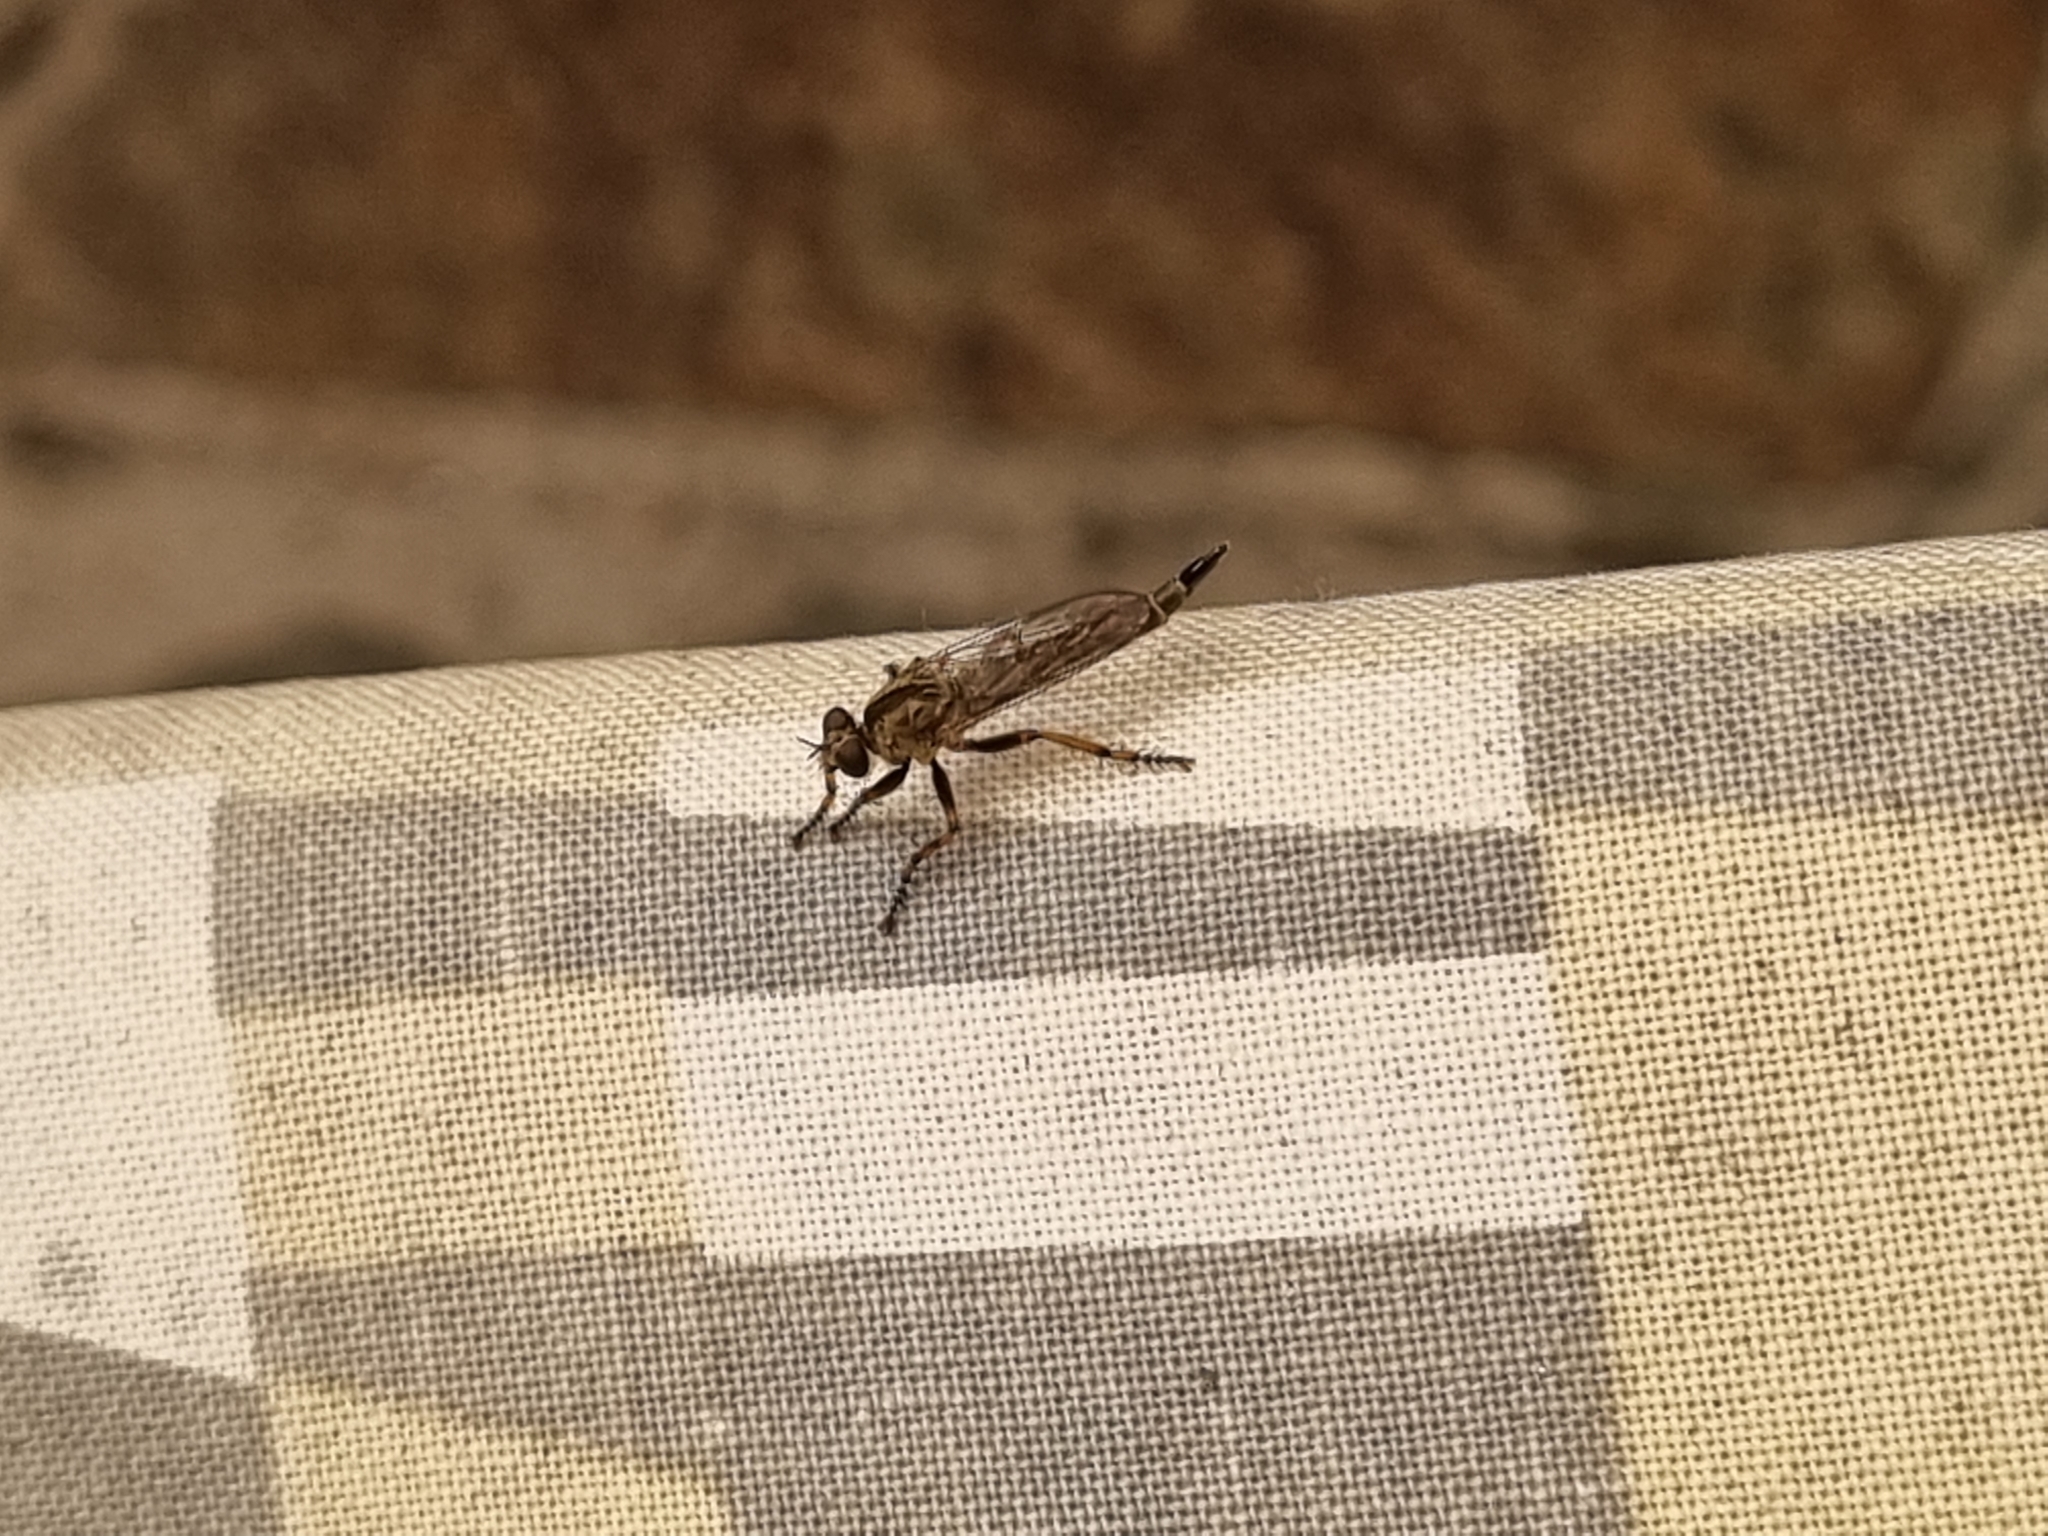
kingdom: Animalia
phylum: Arthropoda
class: Insecta
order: Diptera
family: Asilidae
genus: Epitriptus
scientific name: Epitriptus cingulatus
